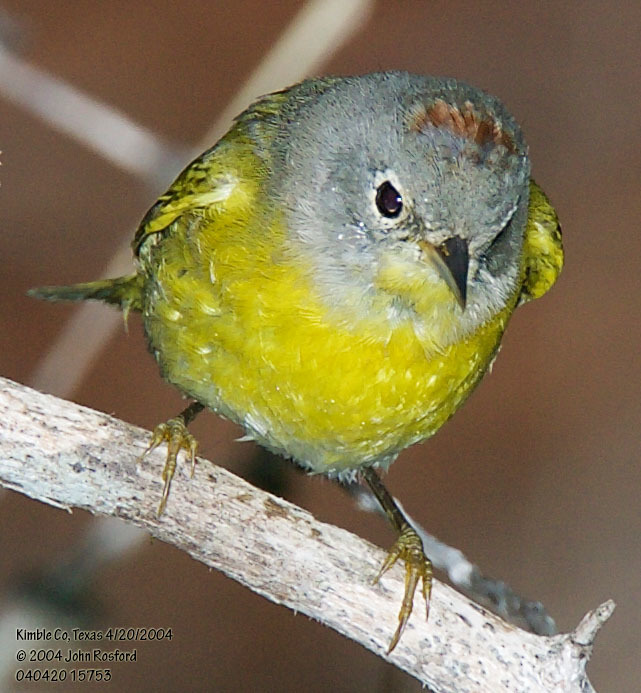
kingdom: Animalia
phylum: Chordata
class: Aves
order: Passeriformes
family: Parulidae
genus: Leiothlypis
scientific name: Leiothlypis ruficapilla
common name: Nashville warbler
